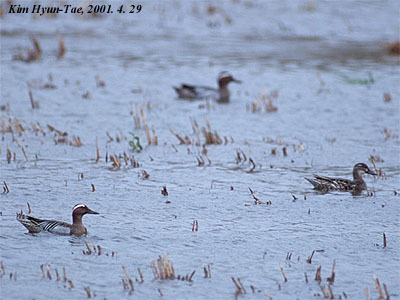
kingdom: Animalia
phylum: Chordata
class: Aves
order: Anseriformes
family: Anatidae
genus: Spatula
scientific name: Spatula querquedula
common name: Garganey
